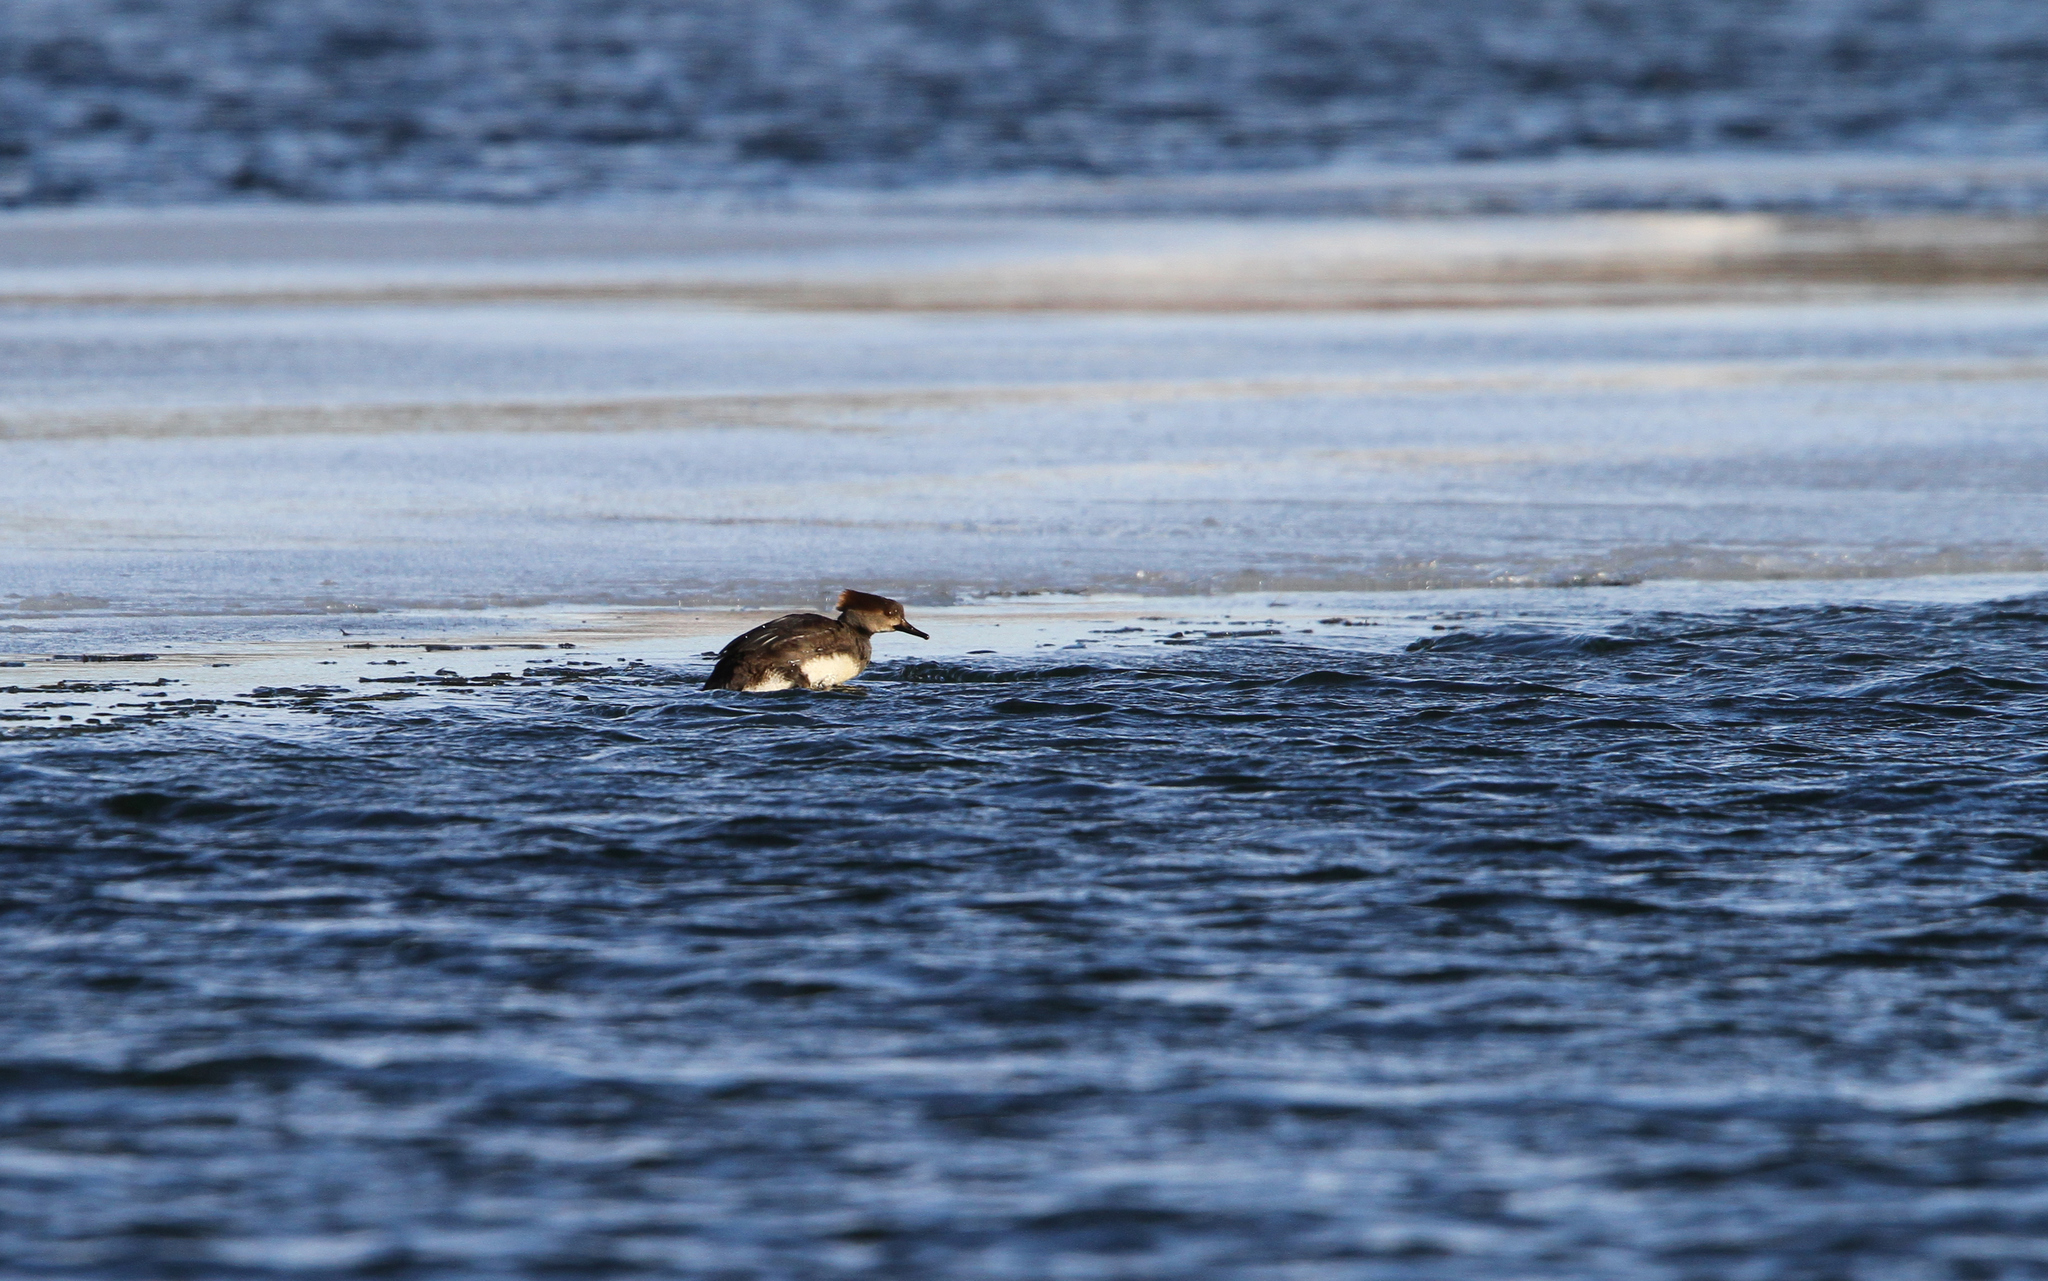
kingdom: Animalia
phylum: Chordata
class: Aves
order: Anseriformes
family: Anatidae
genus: Lophodytes
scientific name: Lophodytes cucullatus
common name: Hooded merganser
